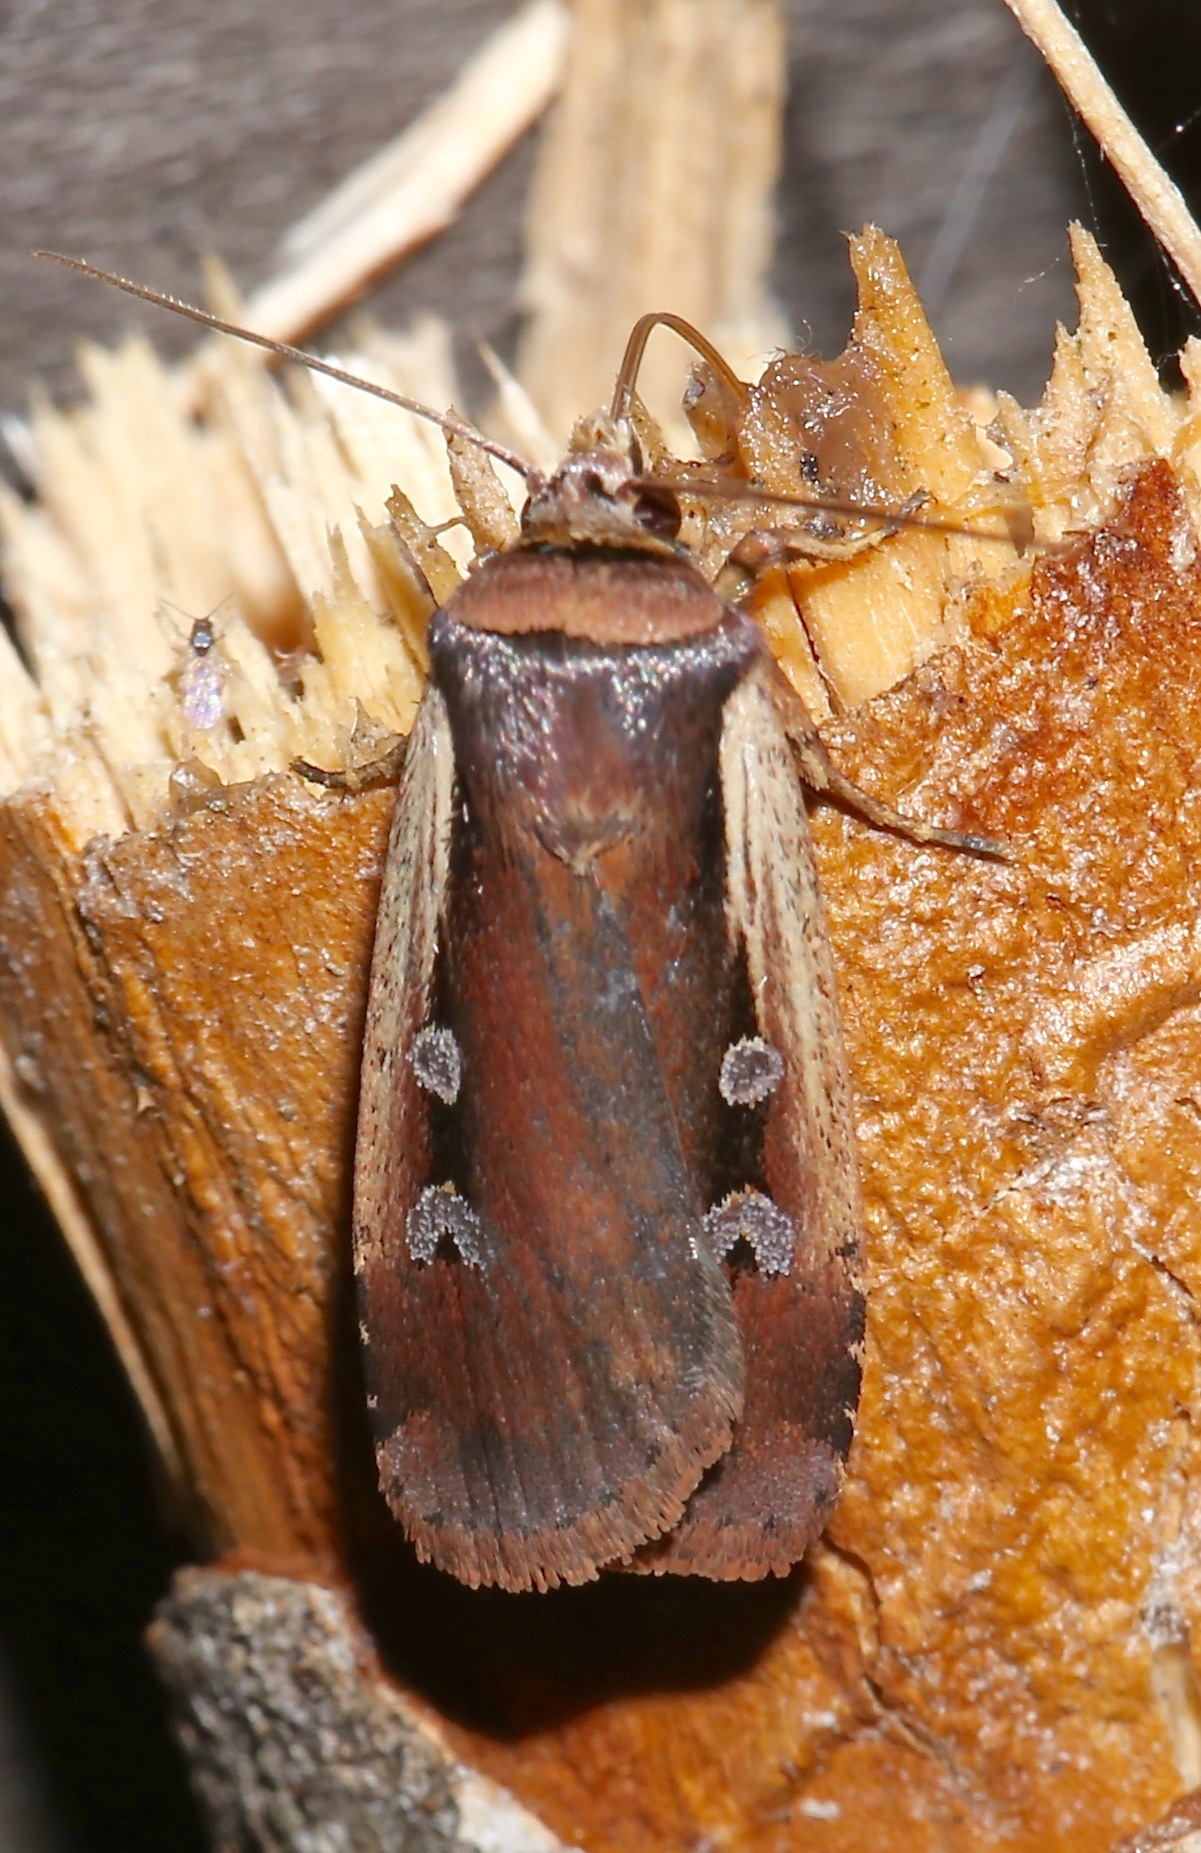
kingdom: Animalia
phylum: Arthropoda
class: Insecta
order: Lepidoptera
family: Noctuidae
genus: Ochropleura
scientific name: Ochropleura implecta
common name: Flame-shouldered dart
